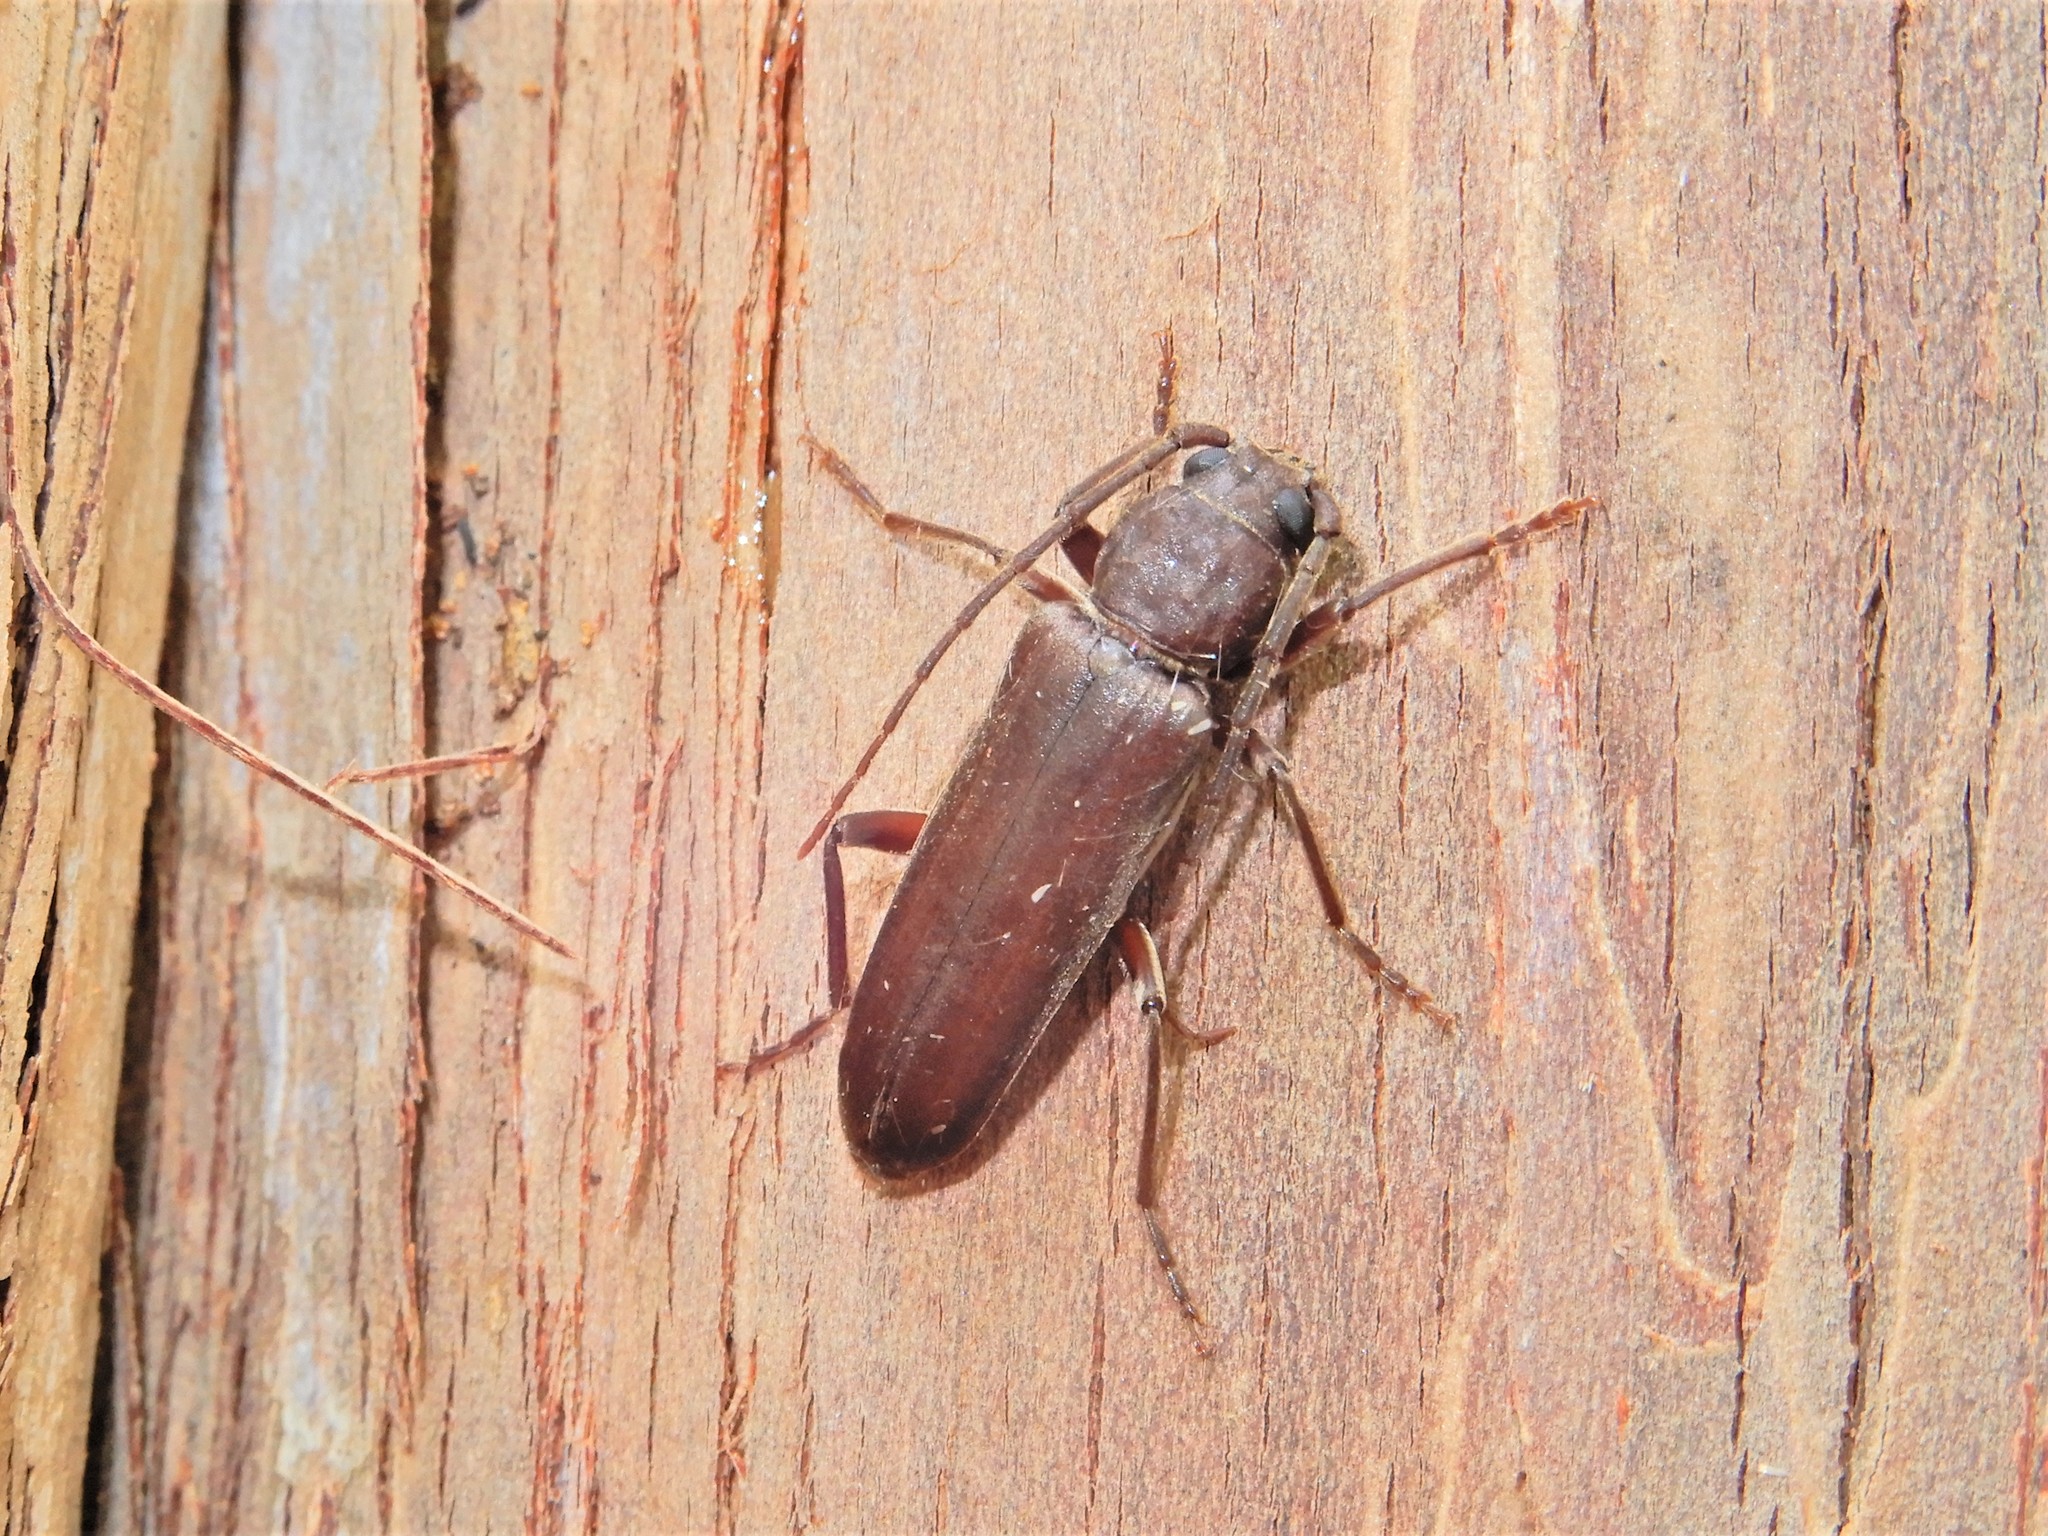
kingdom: Animalia
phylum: Arthropoda
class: Insecta
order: Coleoptera
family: Cerambycidae
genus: Arhopalus
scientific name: Arhopalus ferus
